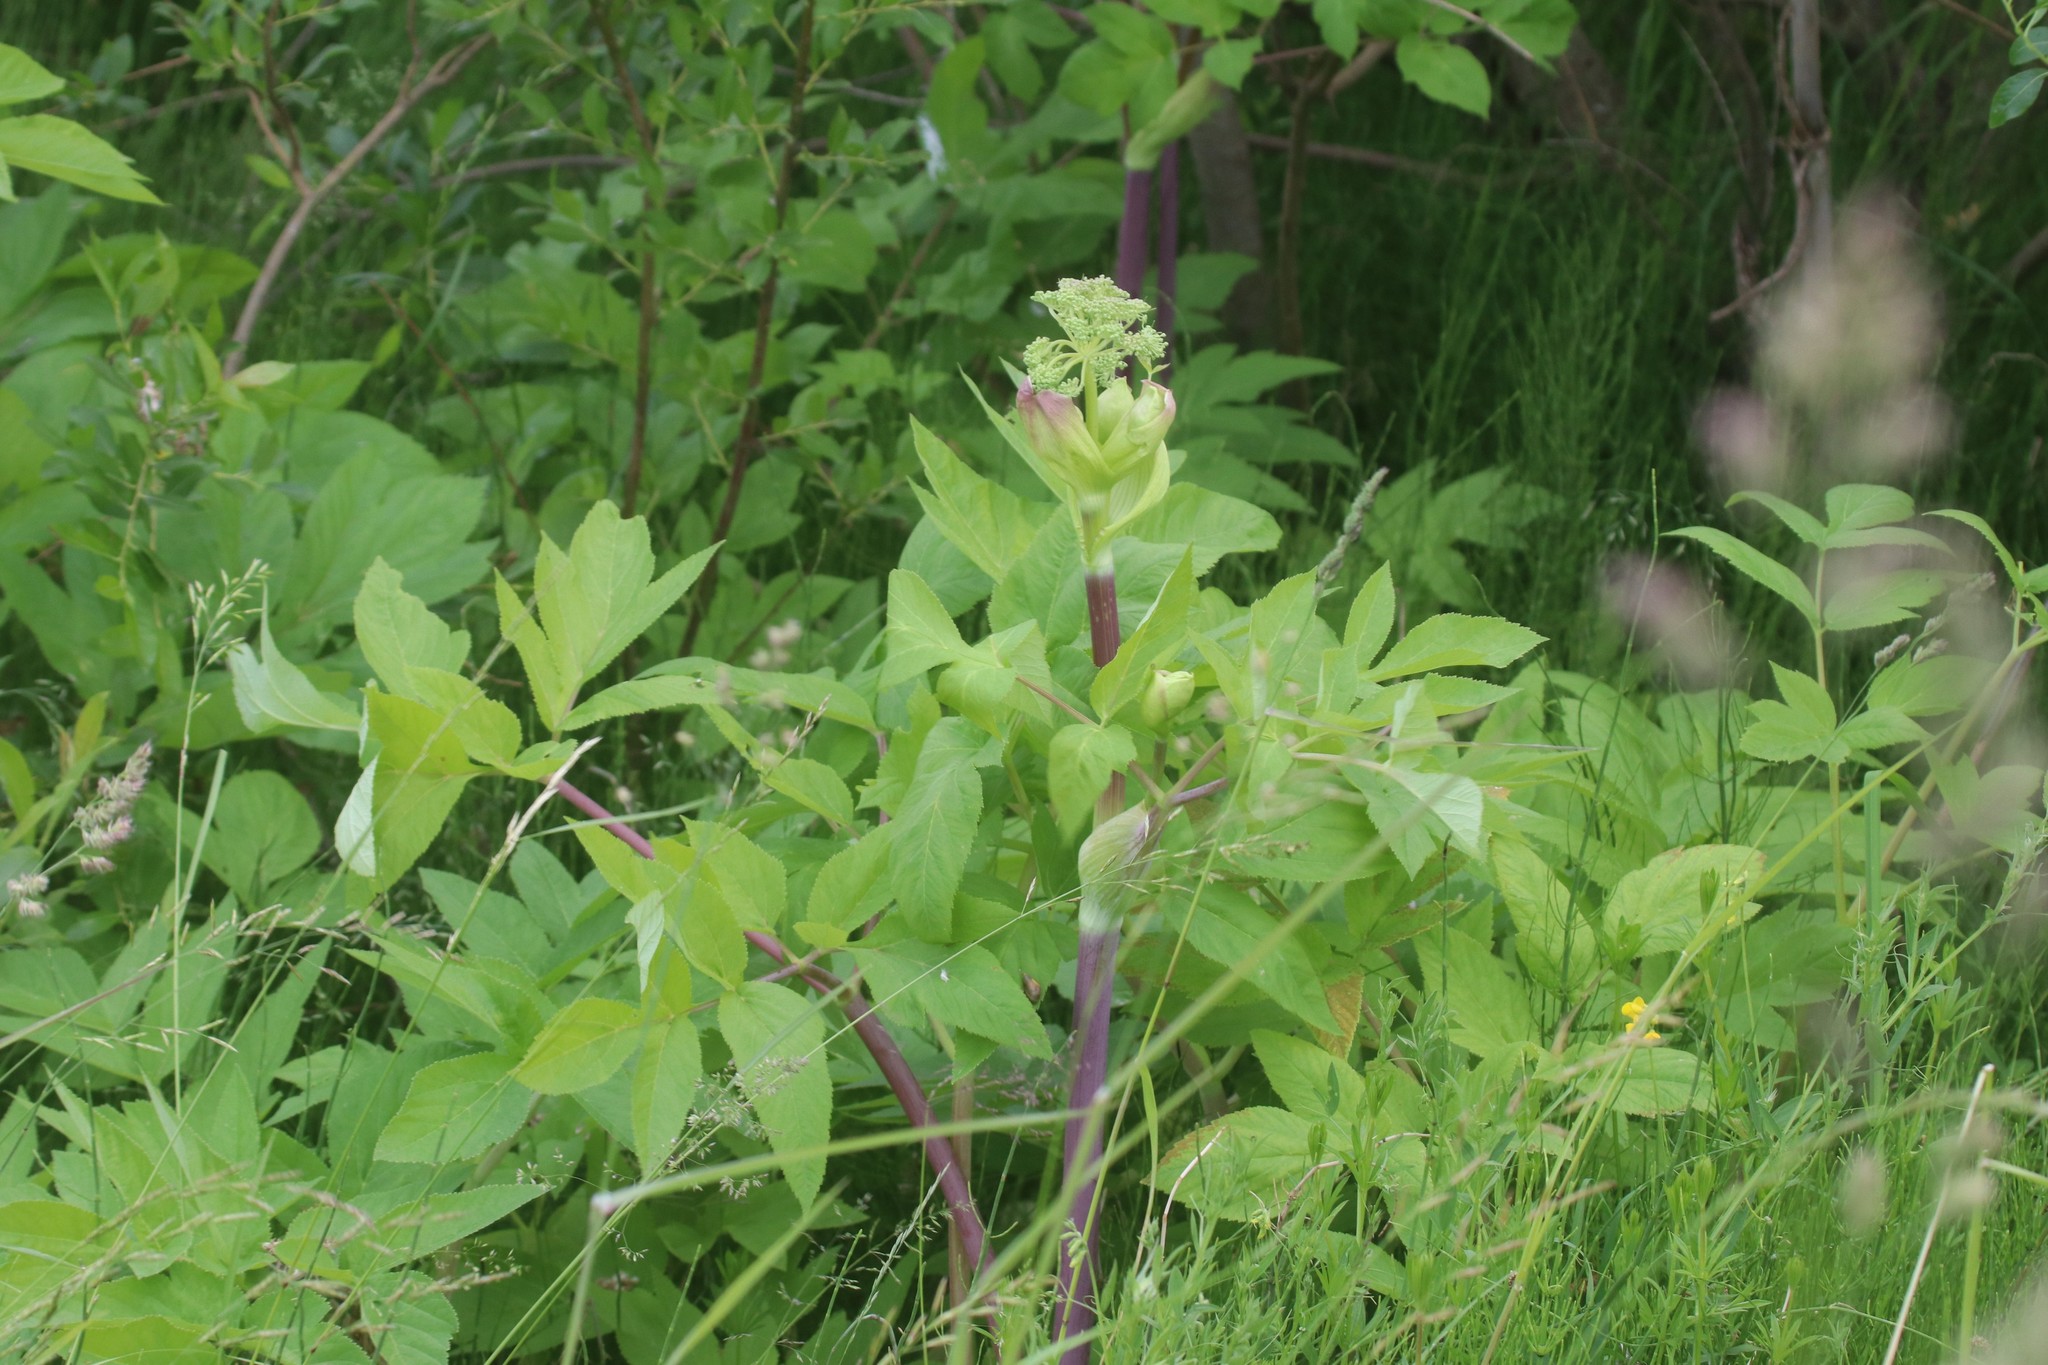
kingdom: Plantae
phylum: Tracheophyta
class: Magnoliopsida
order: Apiales
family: Apiaceae
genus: Angelica
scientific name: Angelica archangelica
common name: Garden angelica
